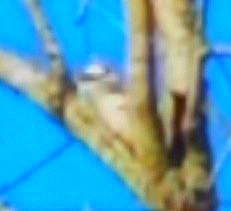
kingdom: Animalia
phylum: Chordata
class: Aves
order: Piciformes
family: Picidae
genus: Dryobates
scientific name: Dryobates pubescens
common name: Downy woodpecker
